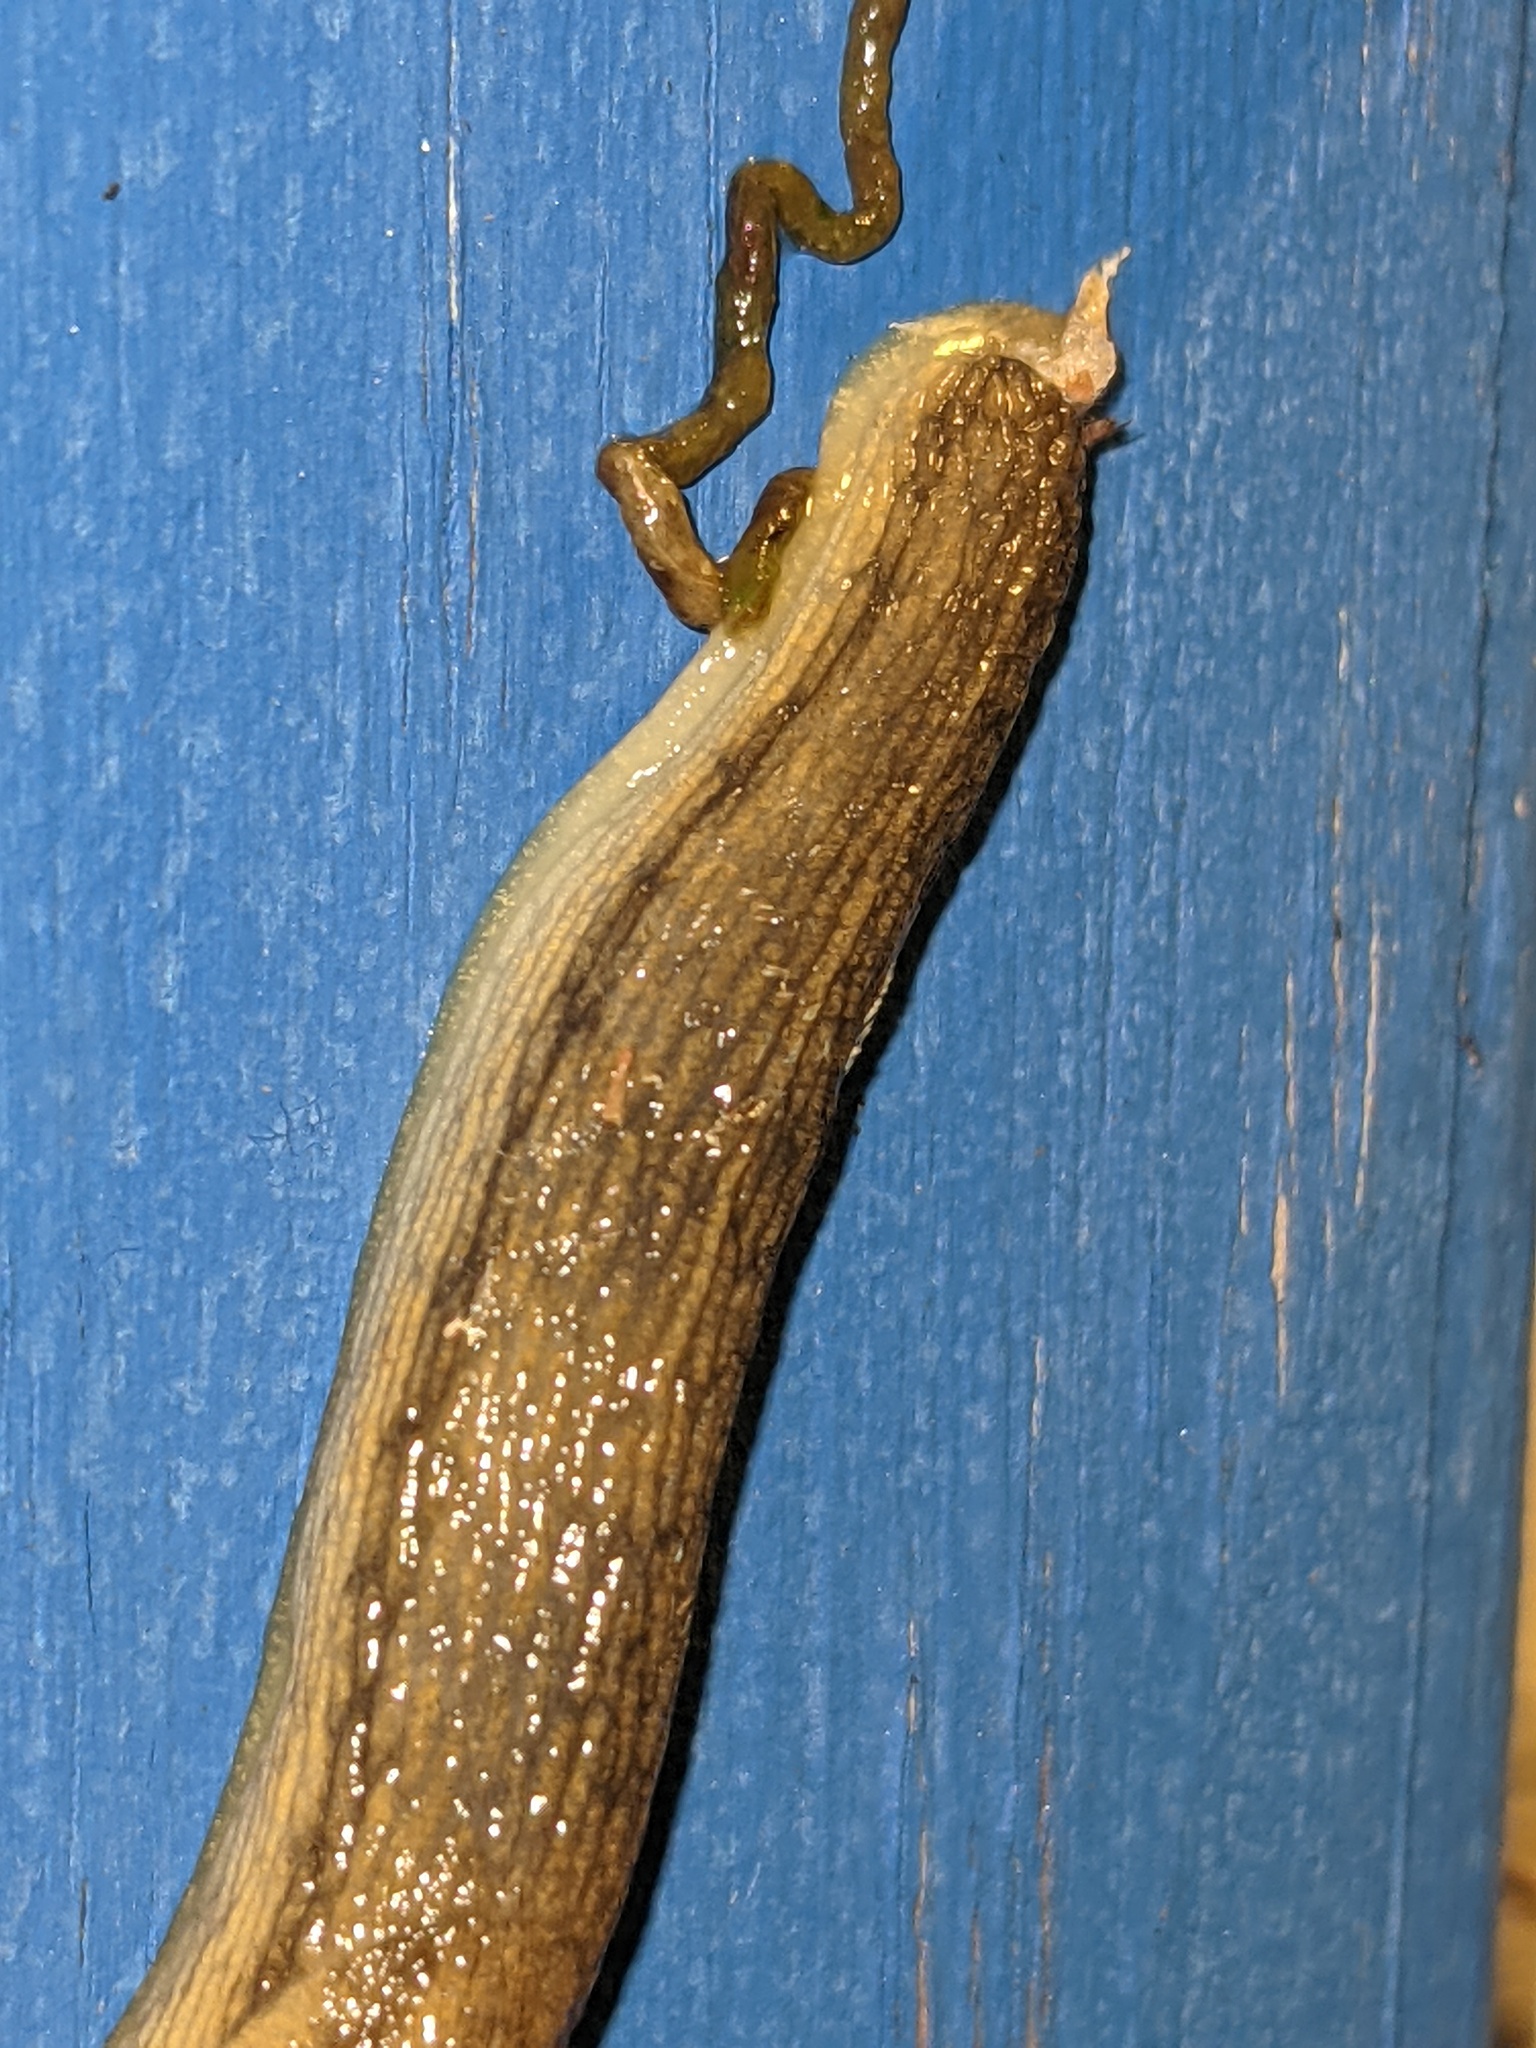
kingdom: Animalia
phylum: Mollusca
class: Gastropoda
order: Stylommatophora
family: Arionidae
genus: Arion
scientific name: Arion fasciatus
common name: Orange-banded arion
